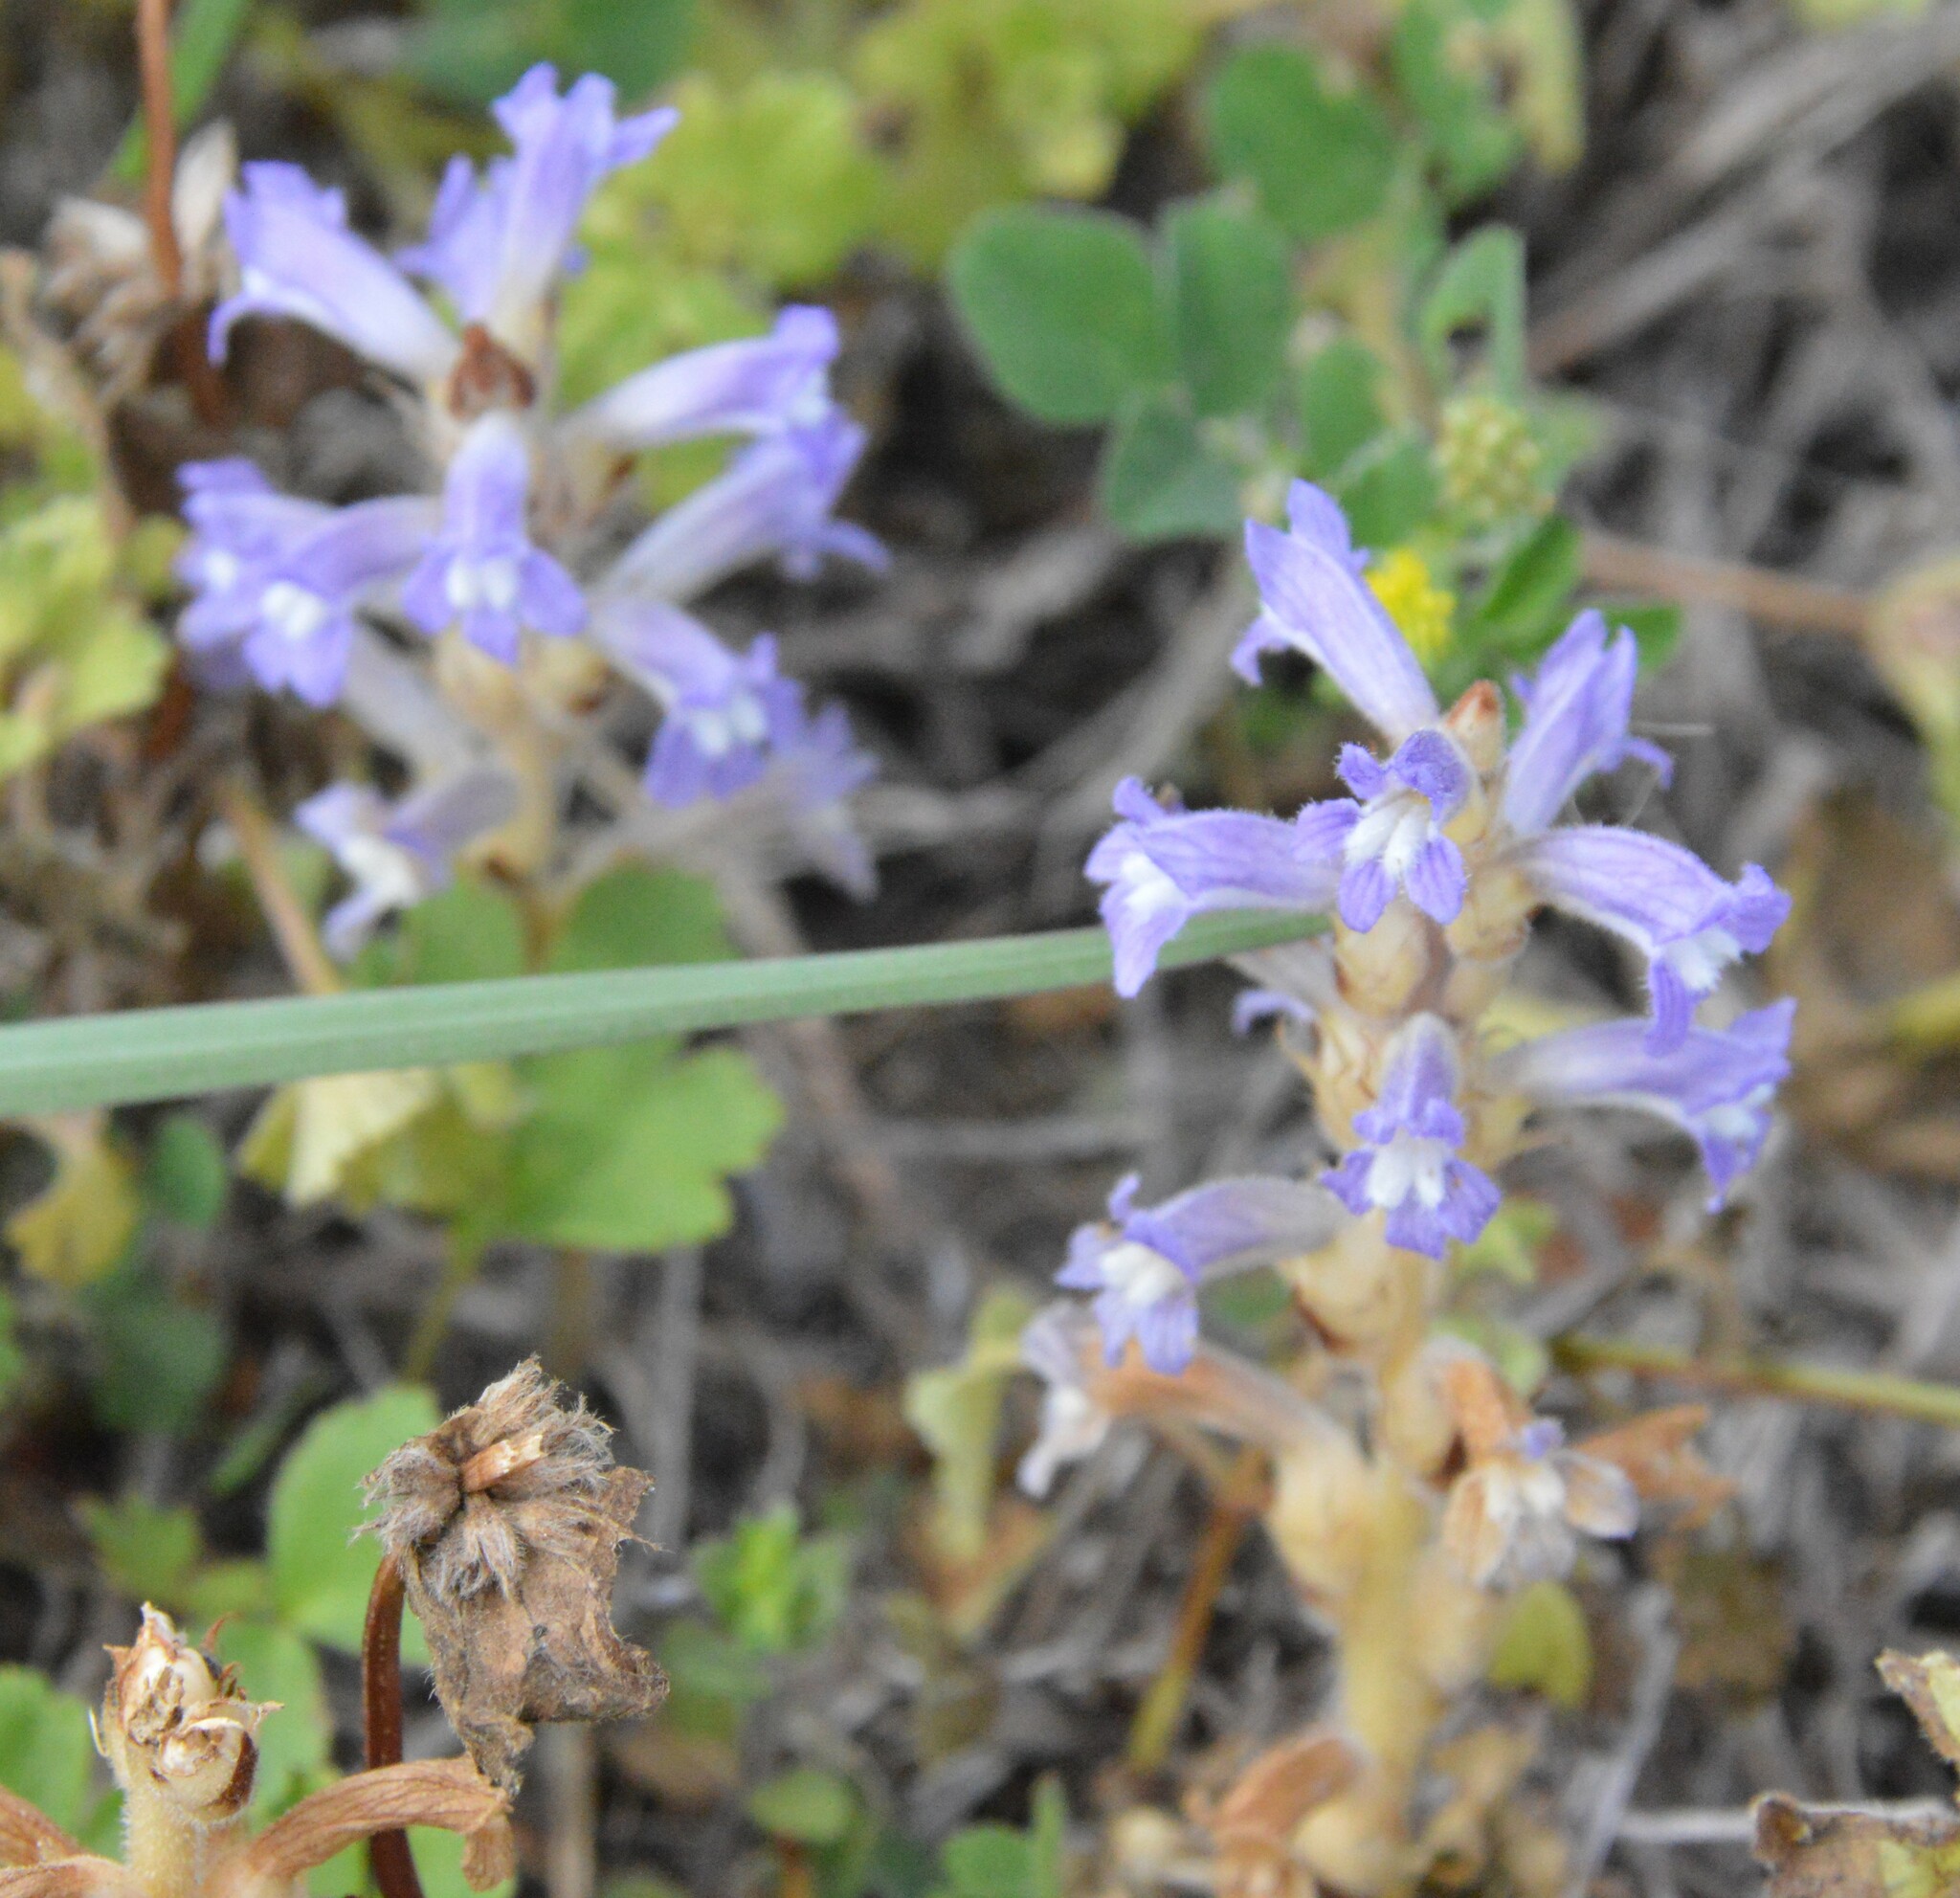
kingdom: Plantae
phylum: Tracheophyta
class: Magnoliopsida
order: Lamiales
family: Orobanchaceae
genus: Phelipanche
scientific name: Phelipanche mutelii
